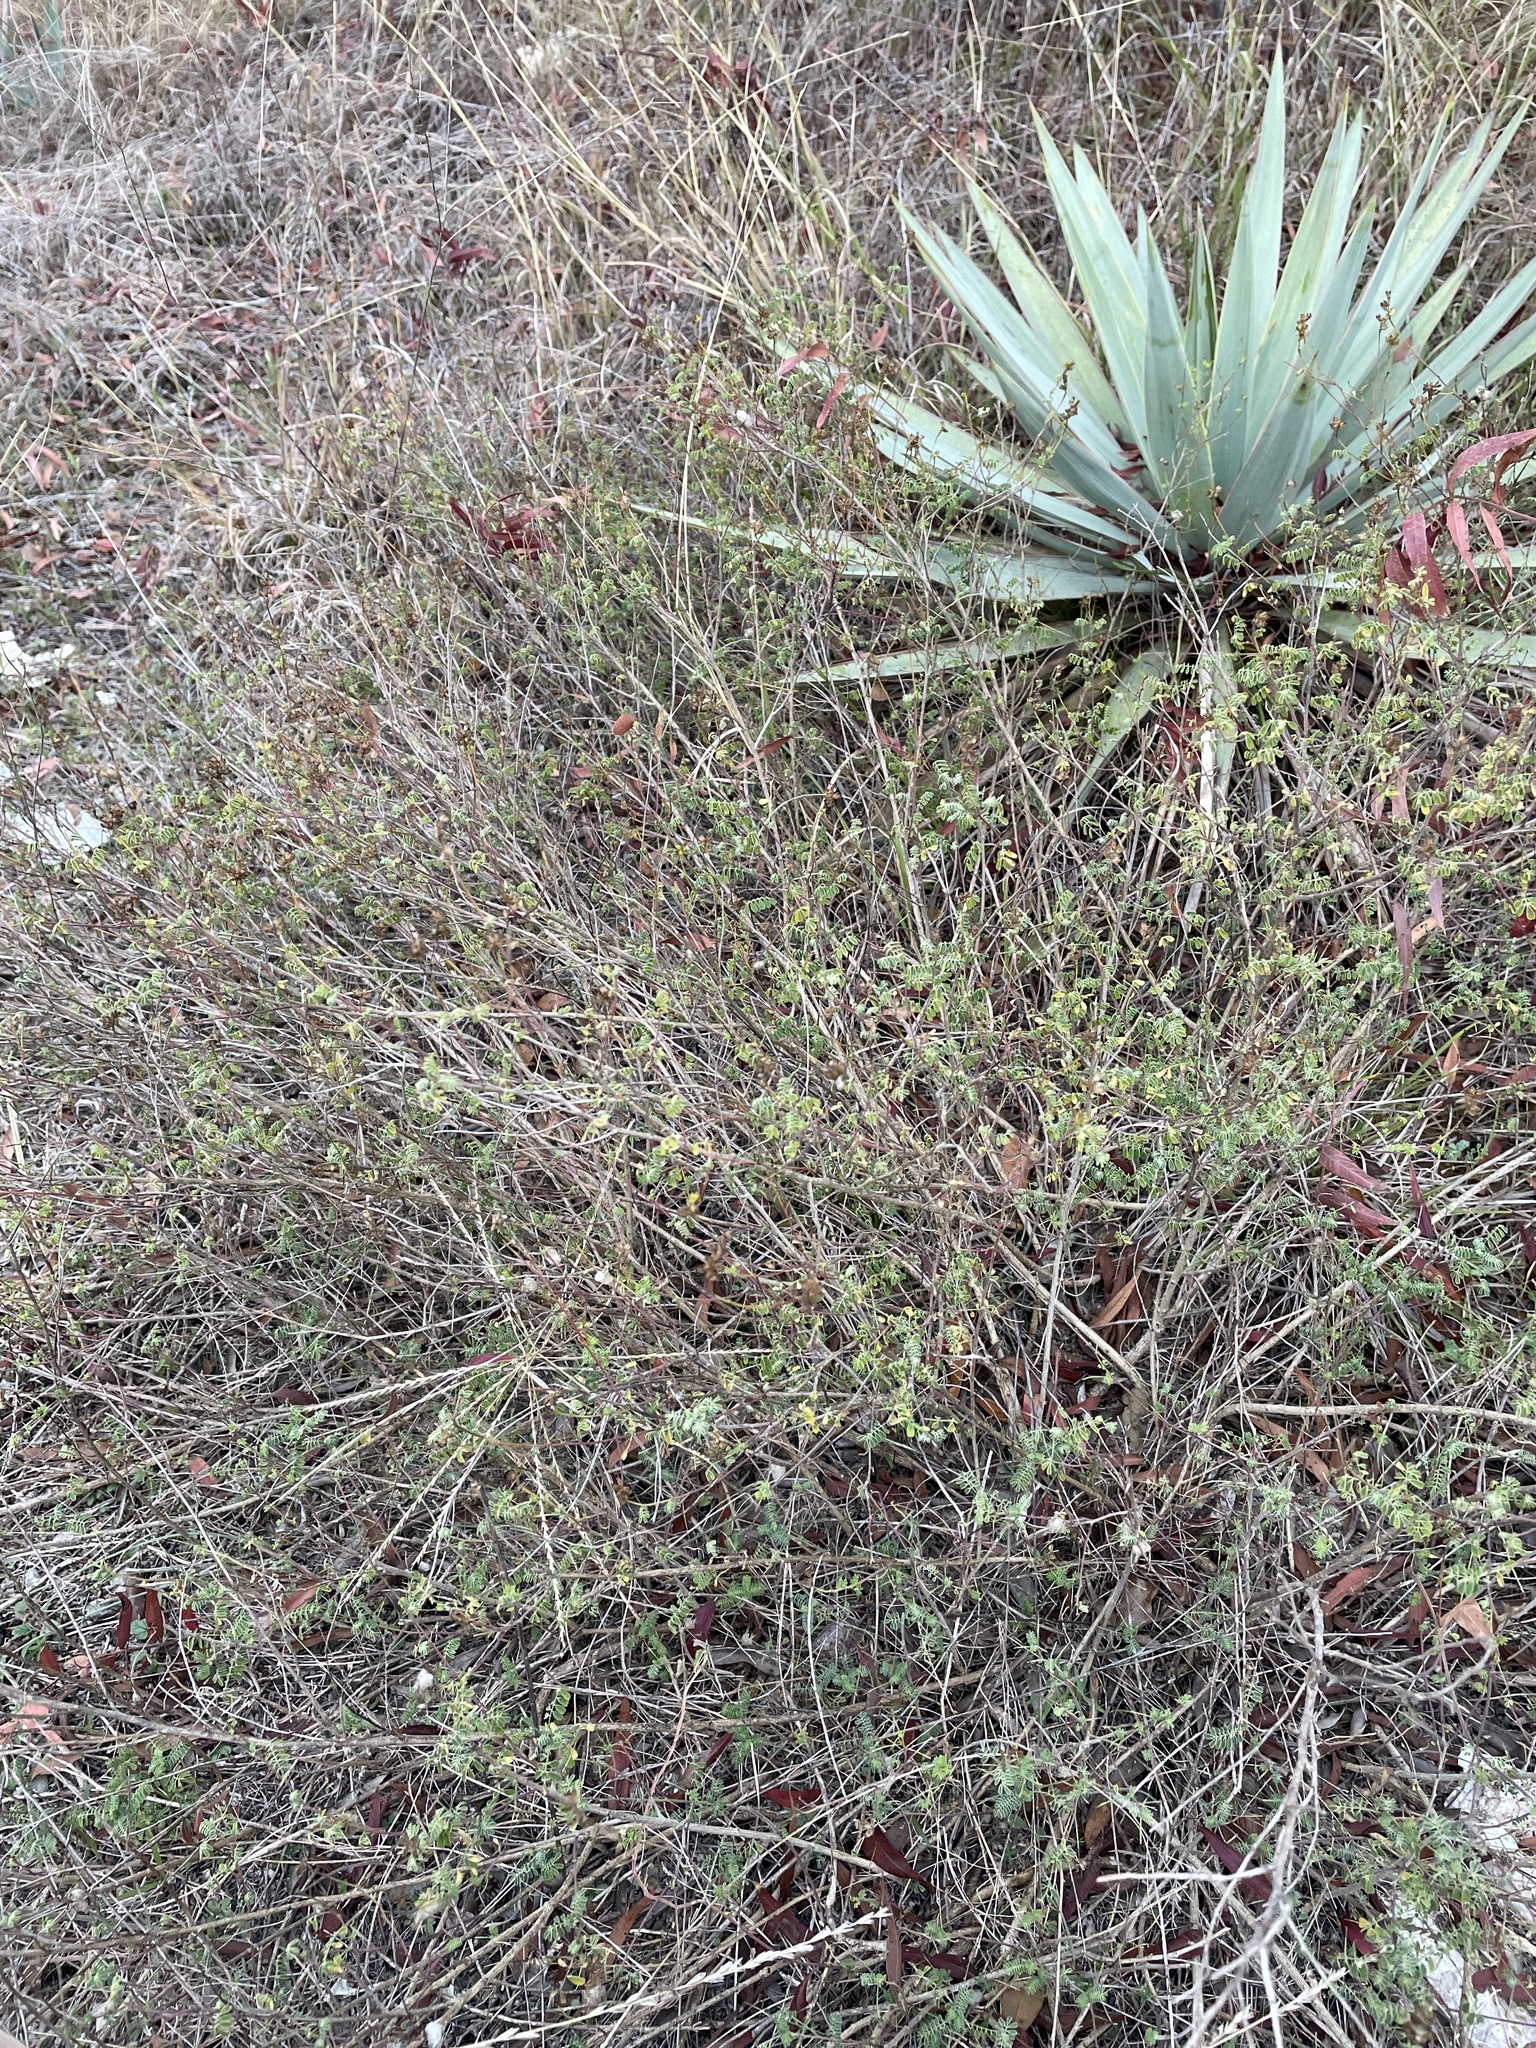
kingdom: Plantae
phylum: Tracheophyta
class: Magnoliopsida
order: Fabales
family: Fabaceae
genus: Dalea
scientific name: Dalea frutescens
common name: Black dalea
